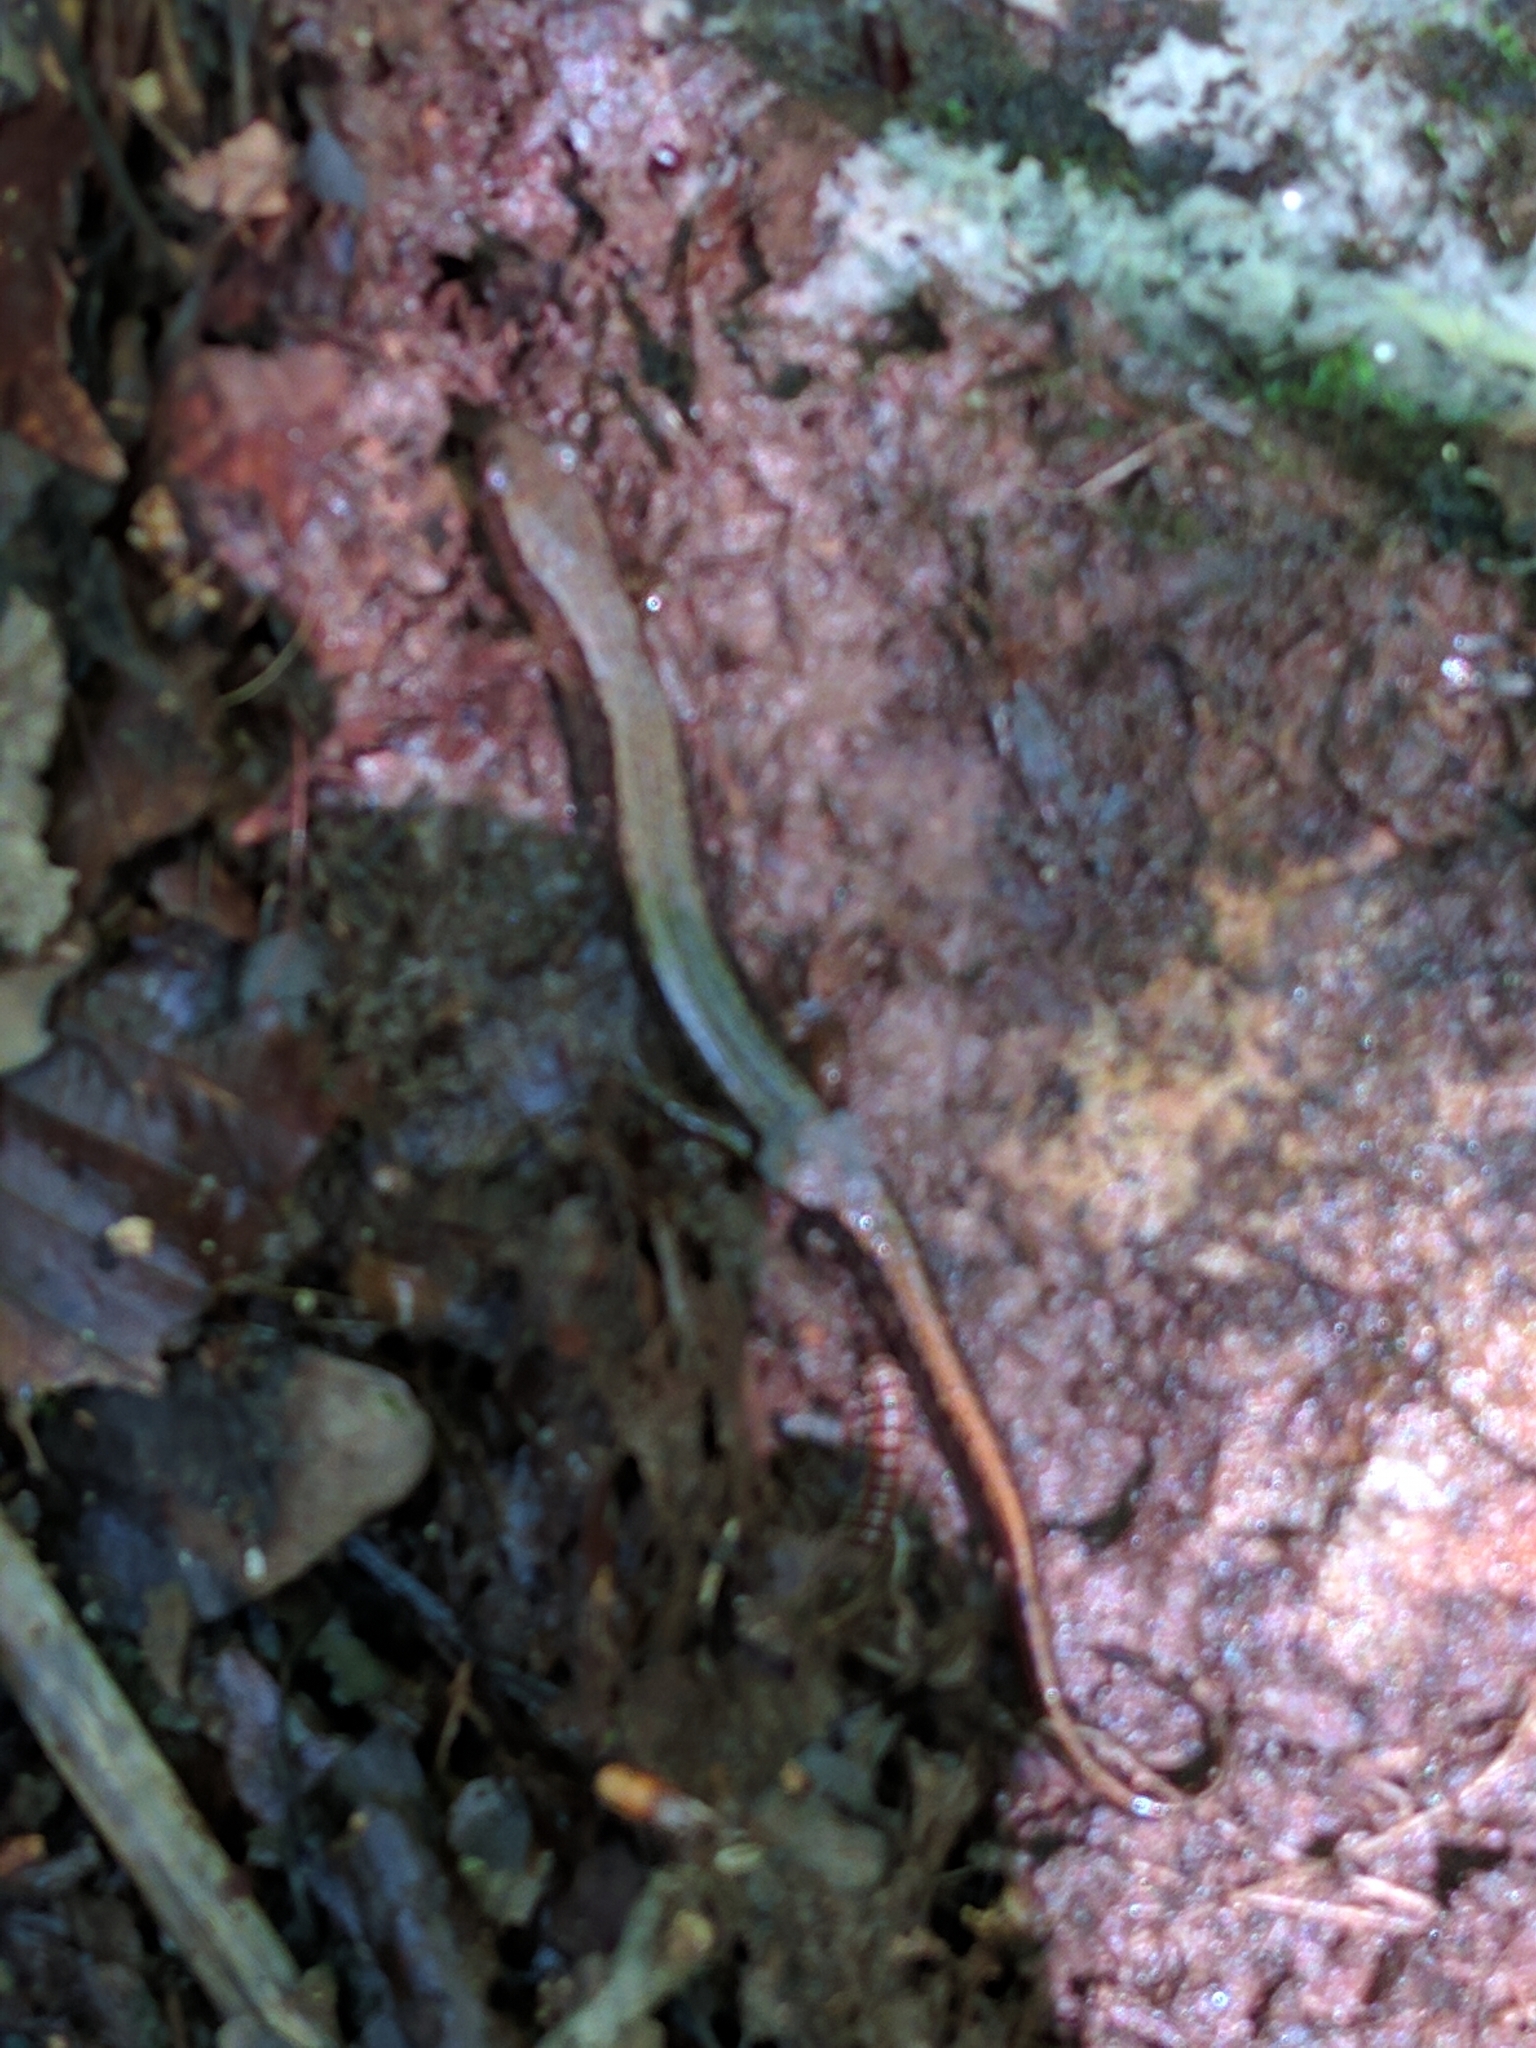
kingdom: Animalia
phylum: Chordata
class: Amphibia
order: Caudata
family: Plethodontidae
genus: Eurycea
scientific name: Eurycea bislineata
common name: Northern two-lined salamander
